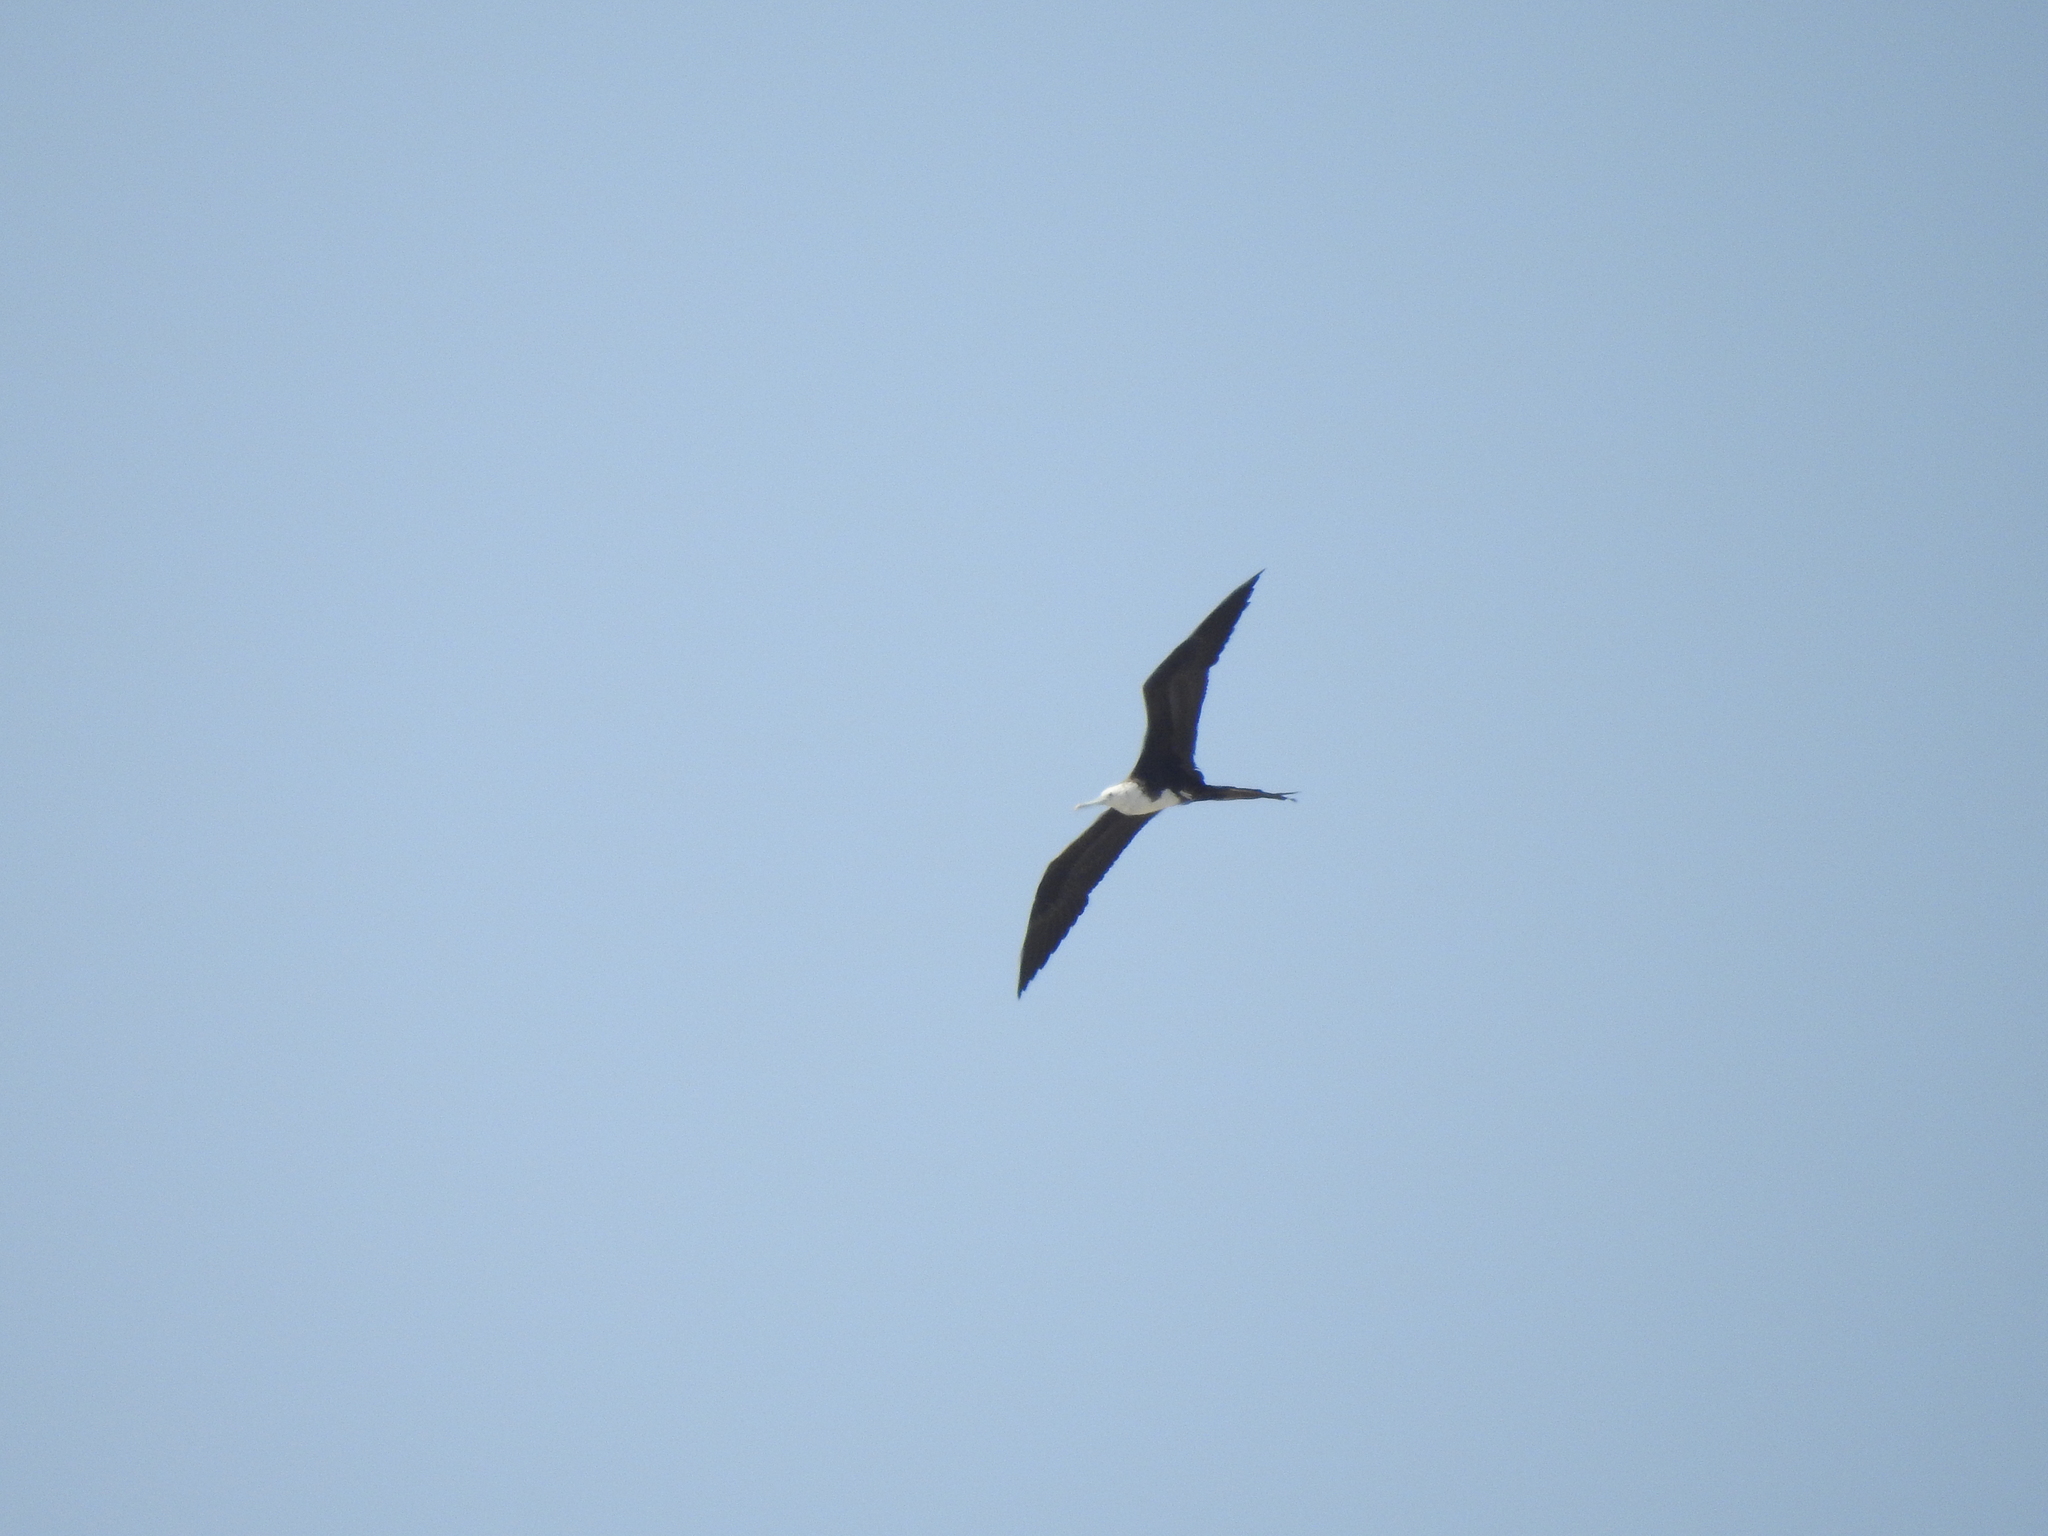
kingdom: Animalia
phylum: Chordata
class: Aves
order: Suliformes
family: Fregatidae
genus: Fregata
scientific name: Fregata magnificens
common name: Magnificent frigatebird
